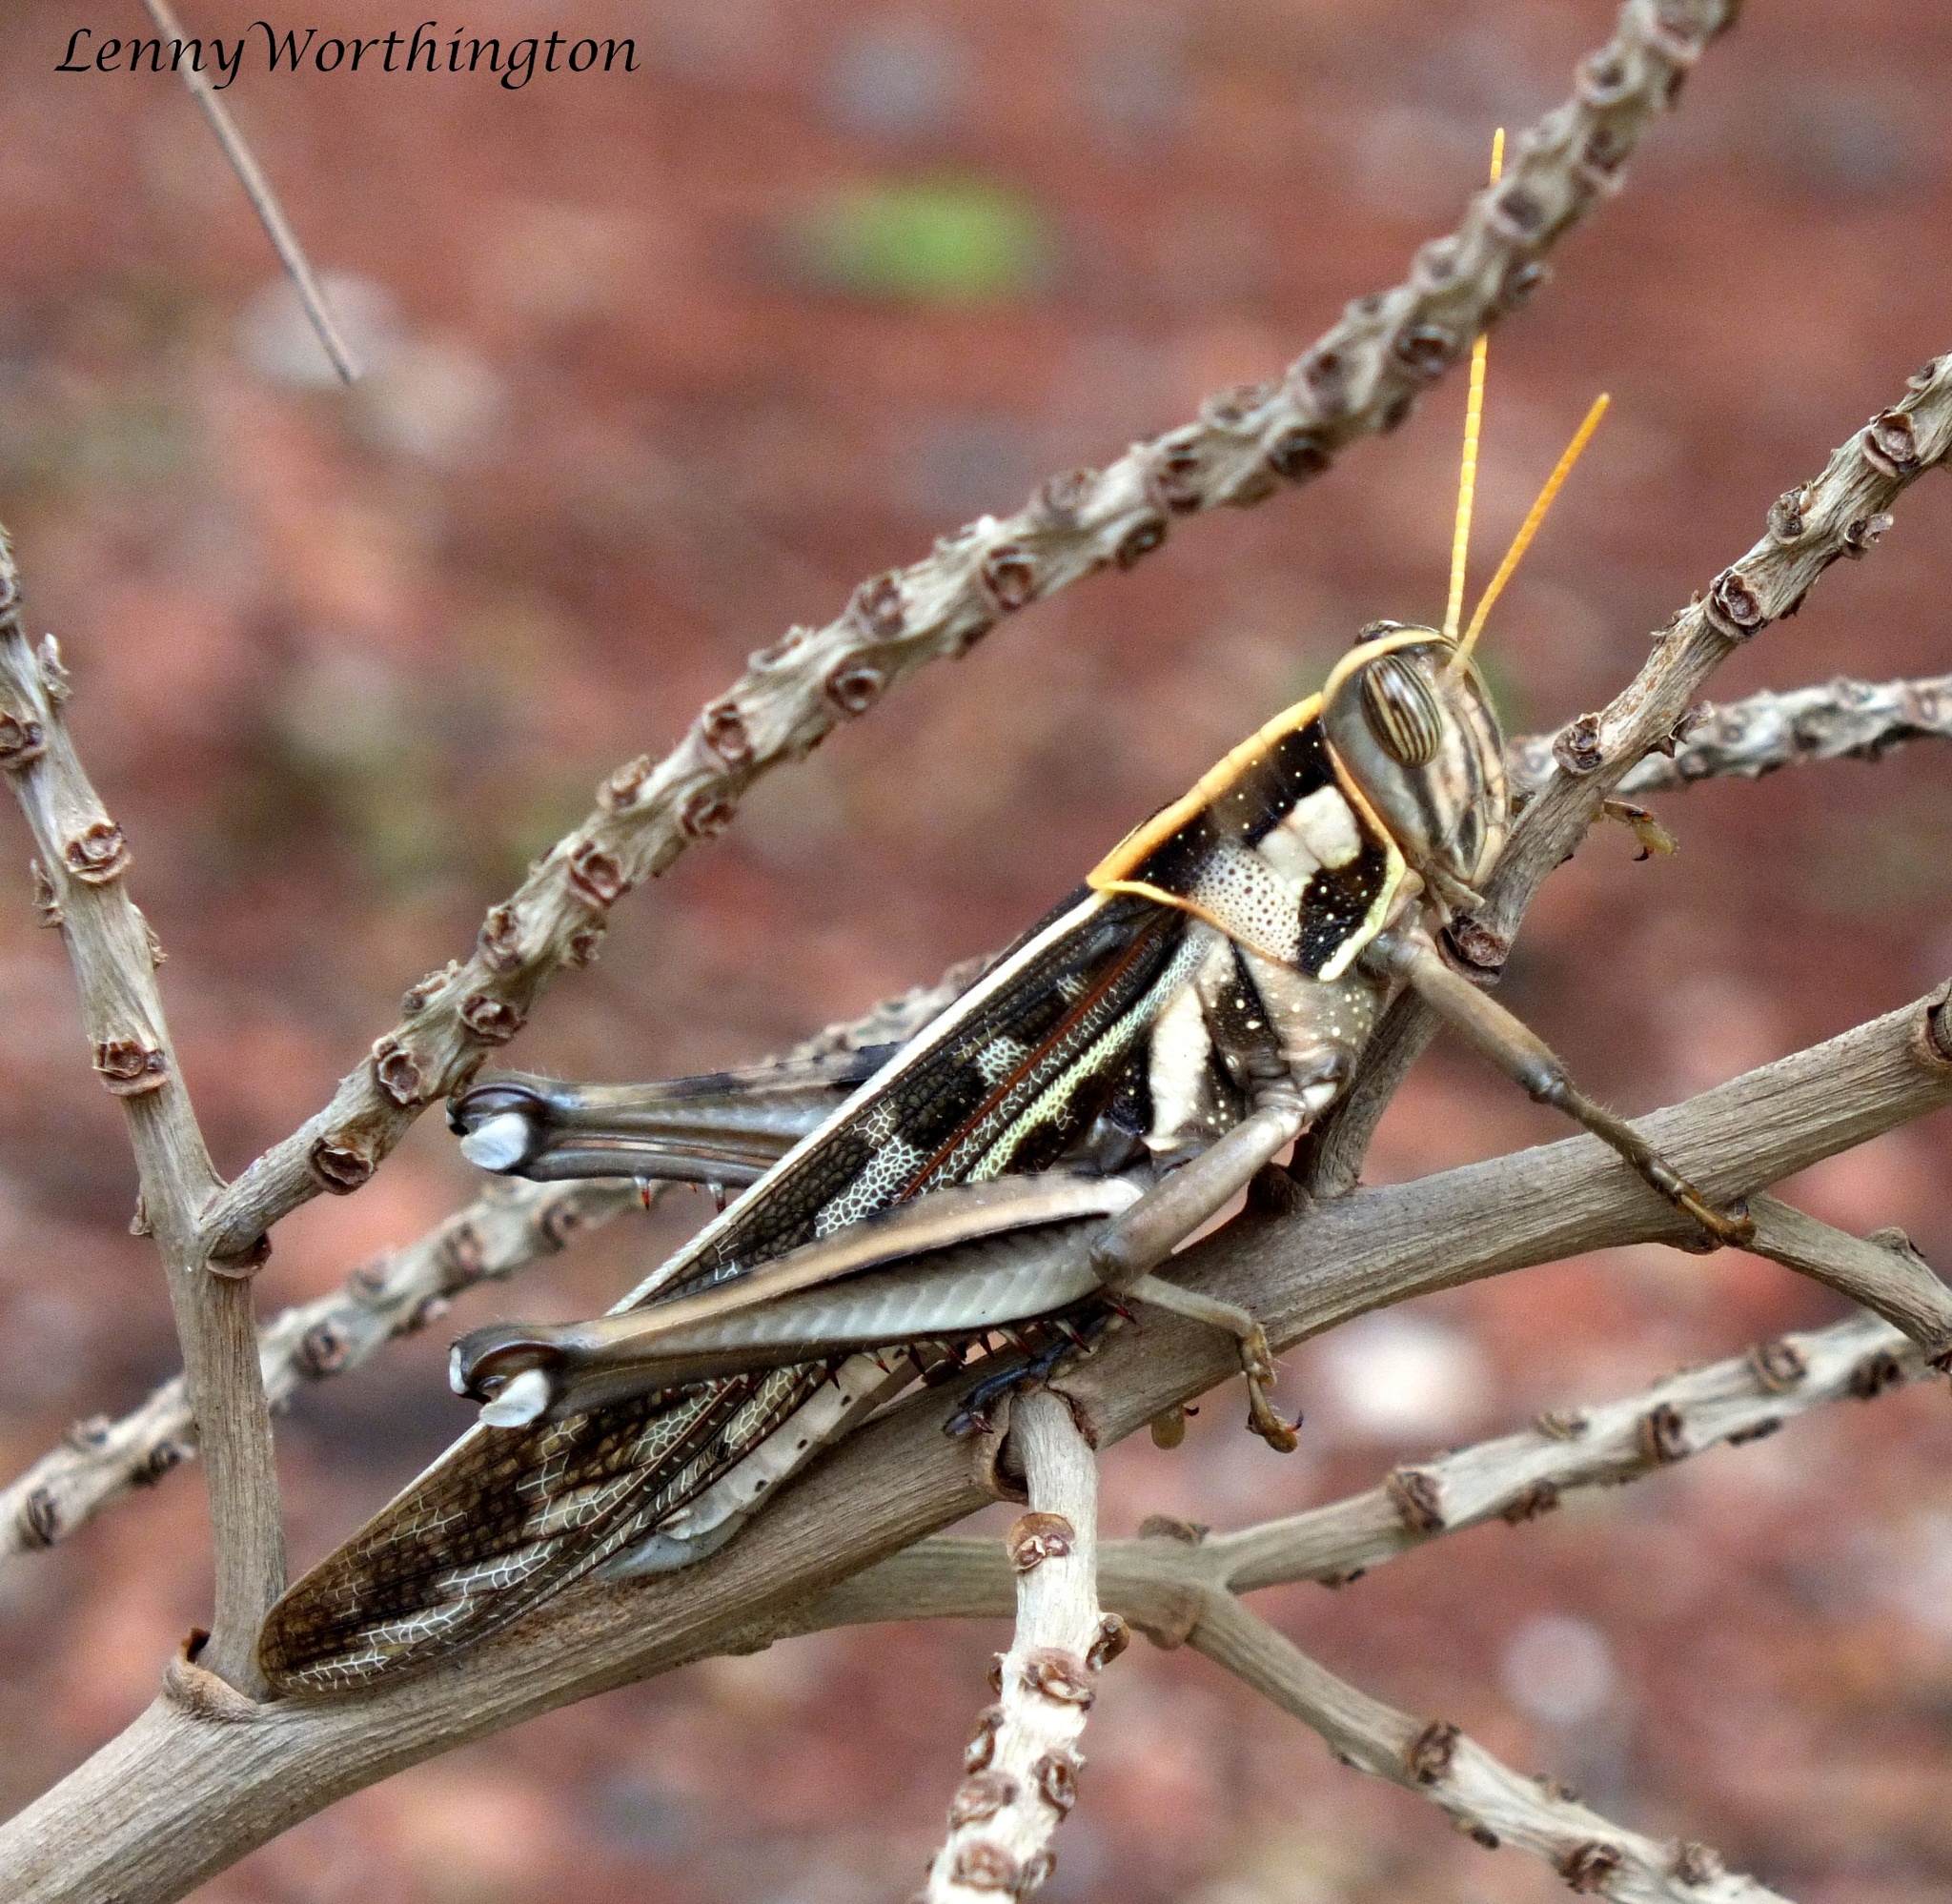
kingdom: Animalia
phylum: Arthropoda
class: Insecta
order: Orthoptera
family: Acrididae
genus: Cyrtacanthacris
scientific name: Cyrtacanthacris tatarica
